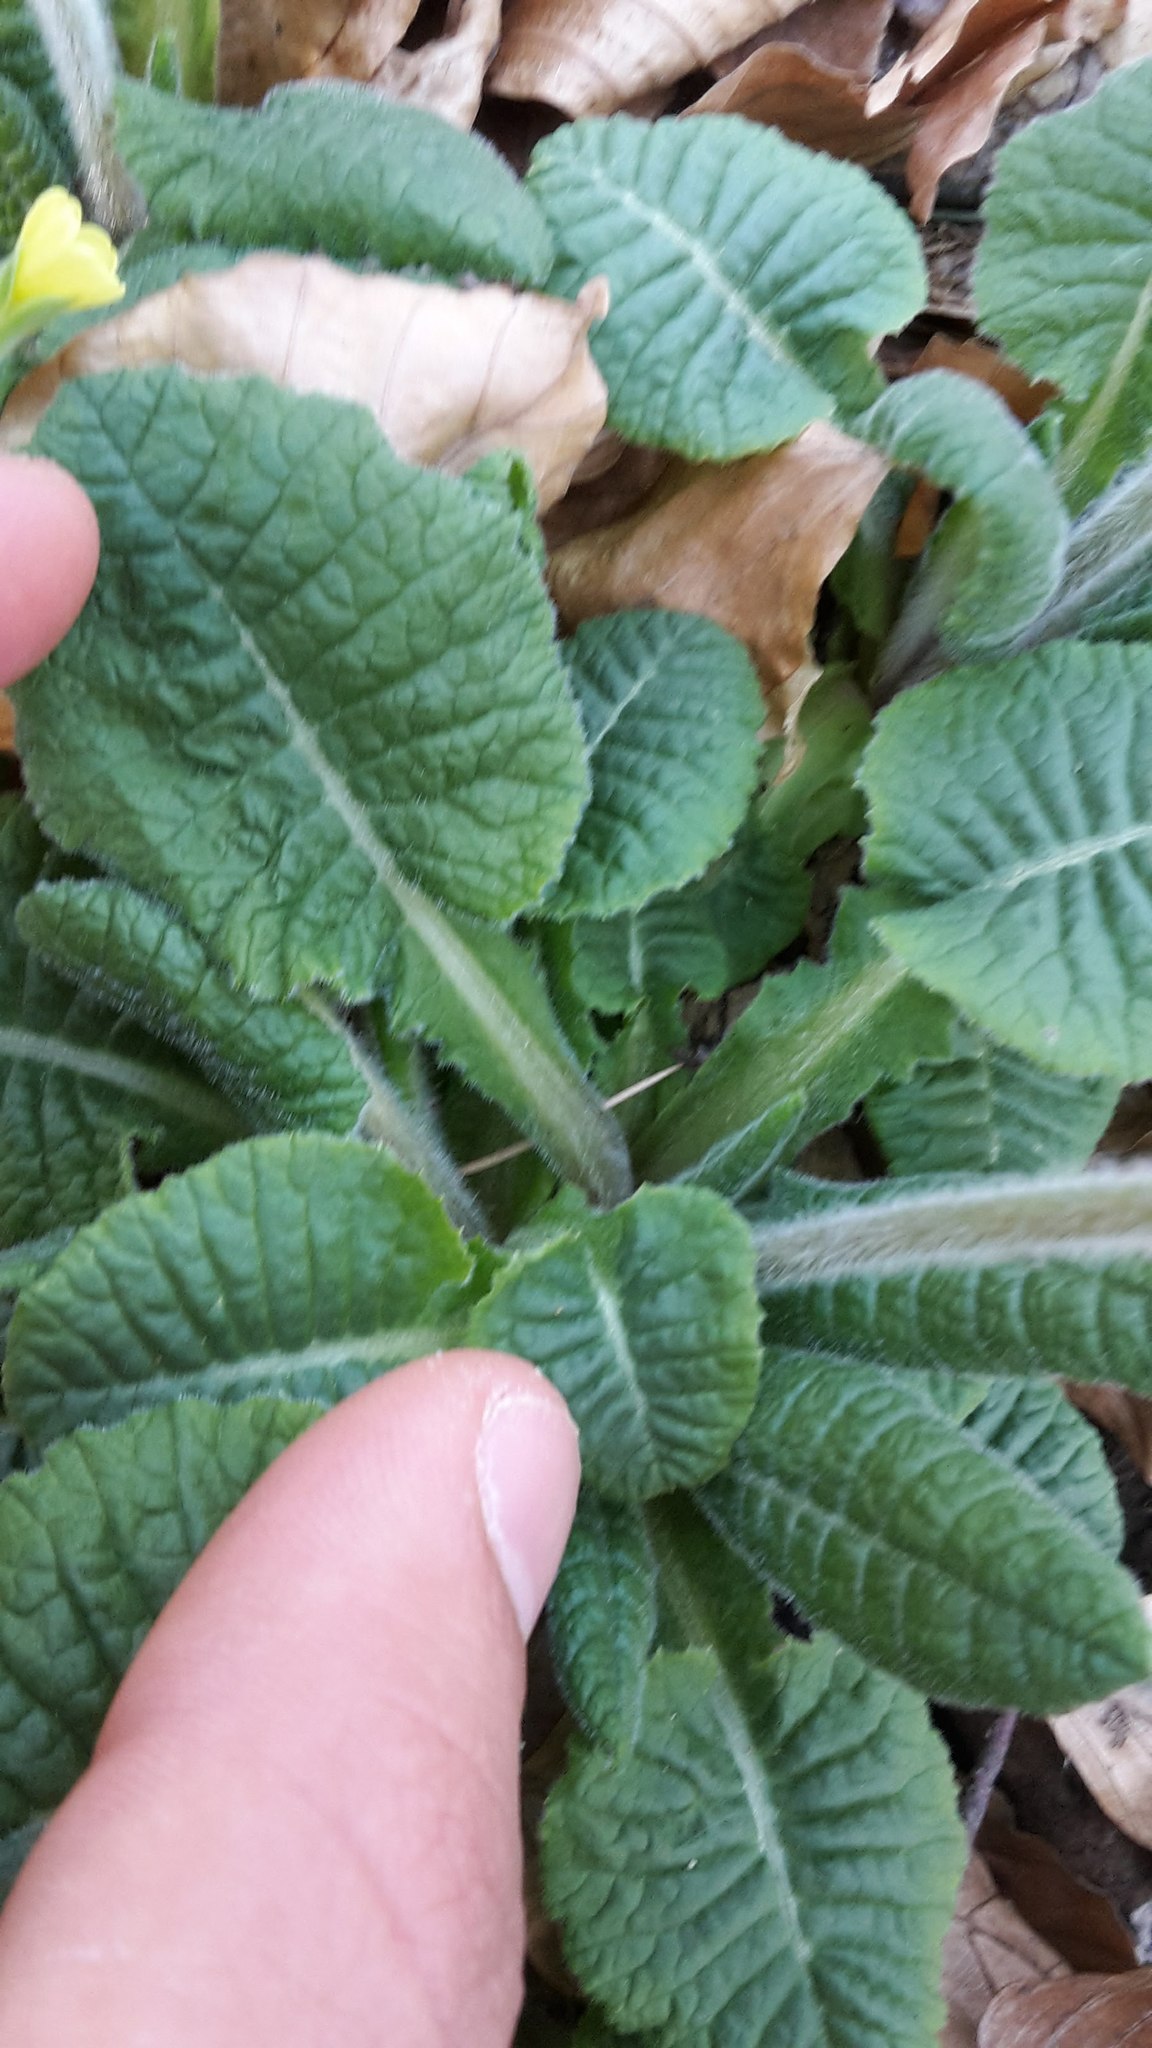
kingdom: Plantae
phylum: Tracheophyta
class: Magnoliopsida
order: Ericales
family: Primulaceae
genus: Primula
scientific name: Primula elatior
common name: Oxlip
